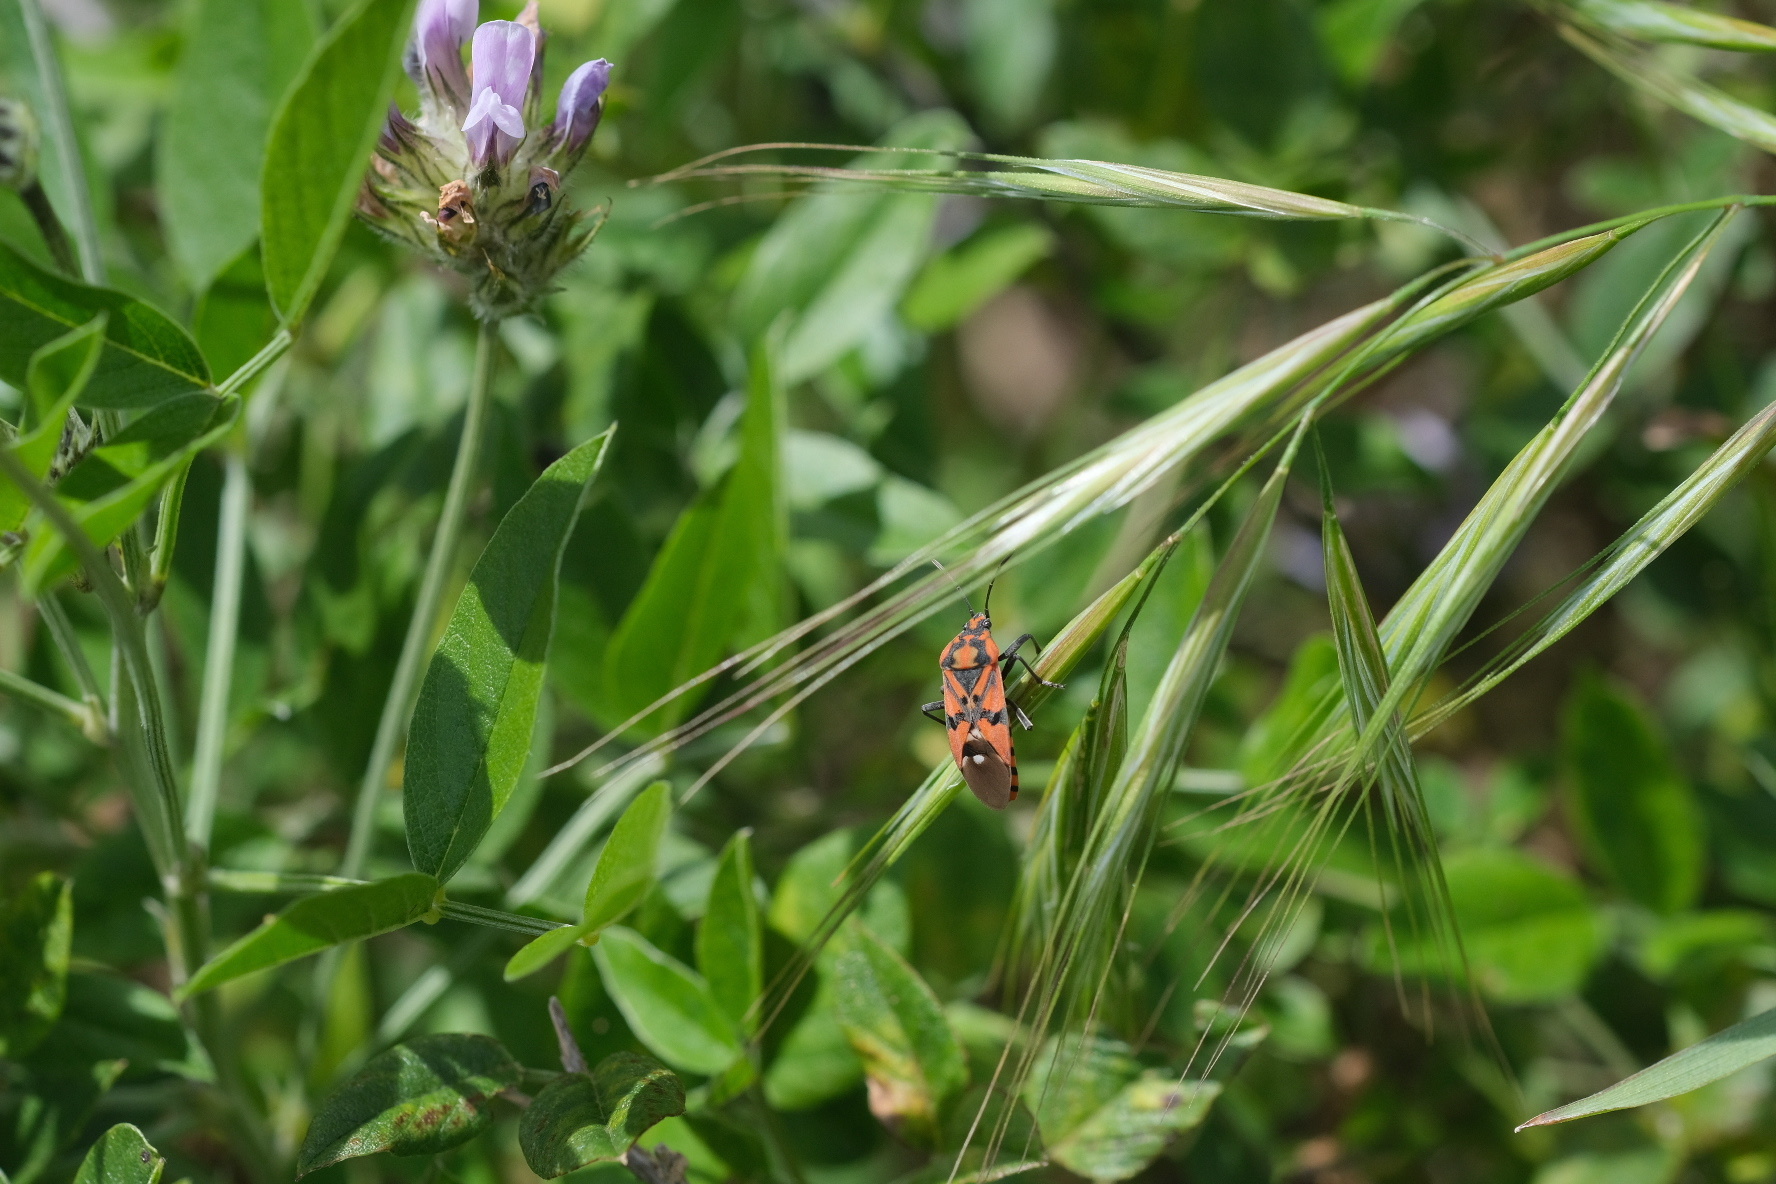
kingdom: Animalia
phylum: Arthropoda
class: Insecta
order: Hemiptera
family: Lygaeidae
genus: Spilostethus
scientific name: Spilostethus pandurus
